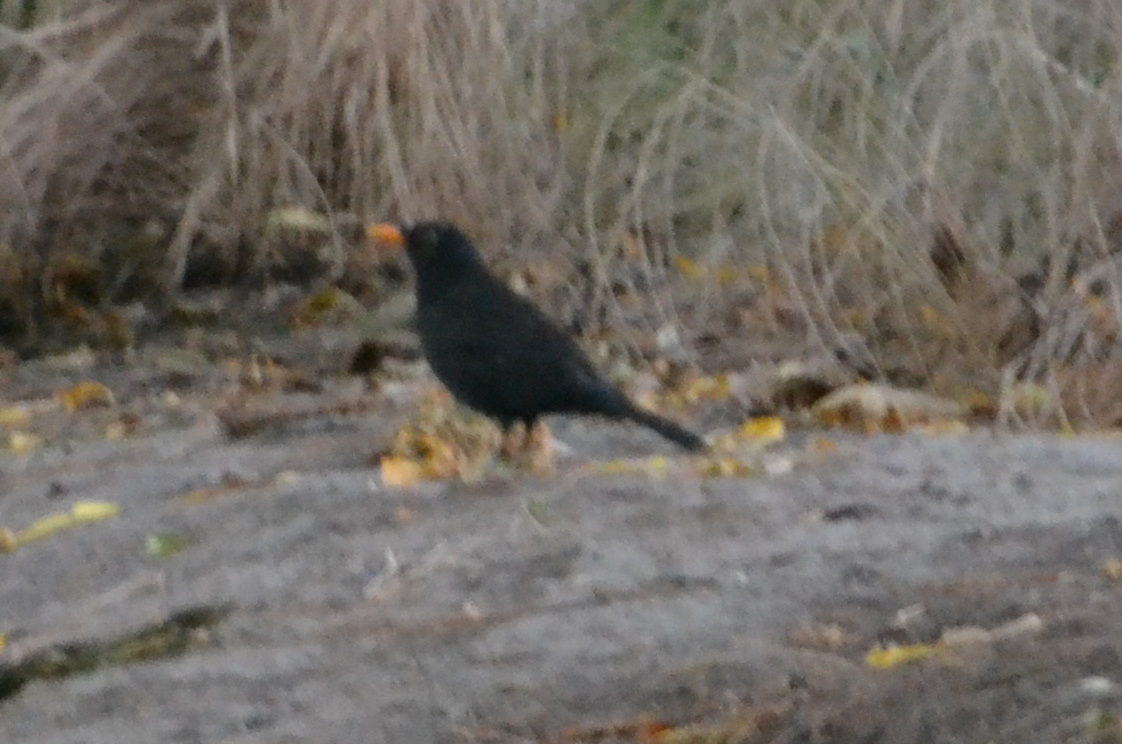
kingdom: Animalia
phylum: Chordata
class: Aves
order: Passeriformes
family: Turdidae
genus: Turdus
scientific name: Turdus merula
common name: Common blackbird
